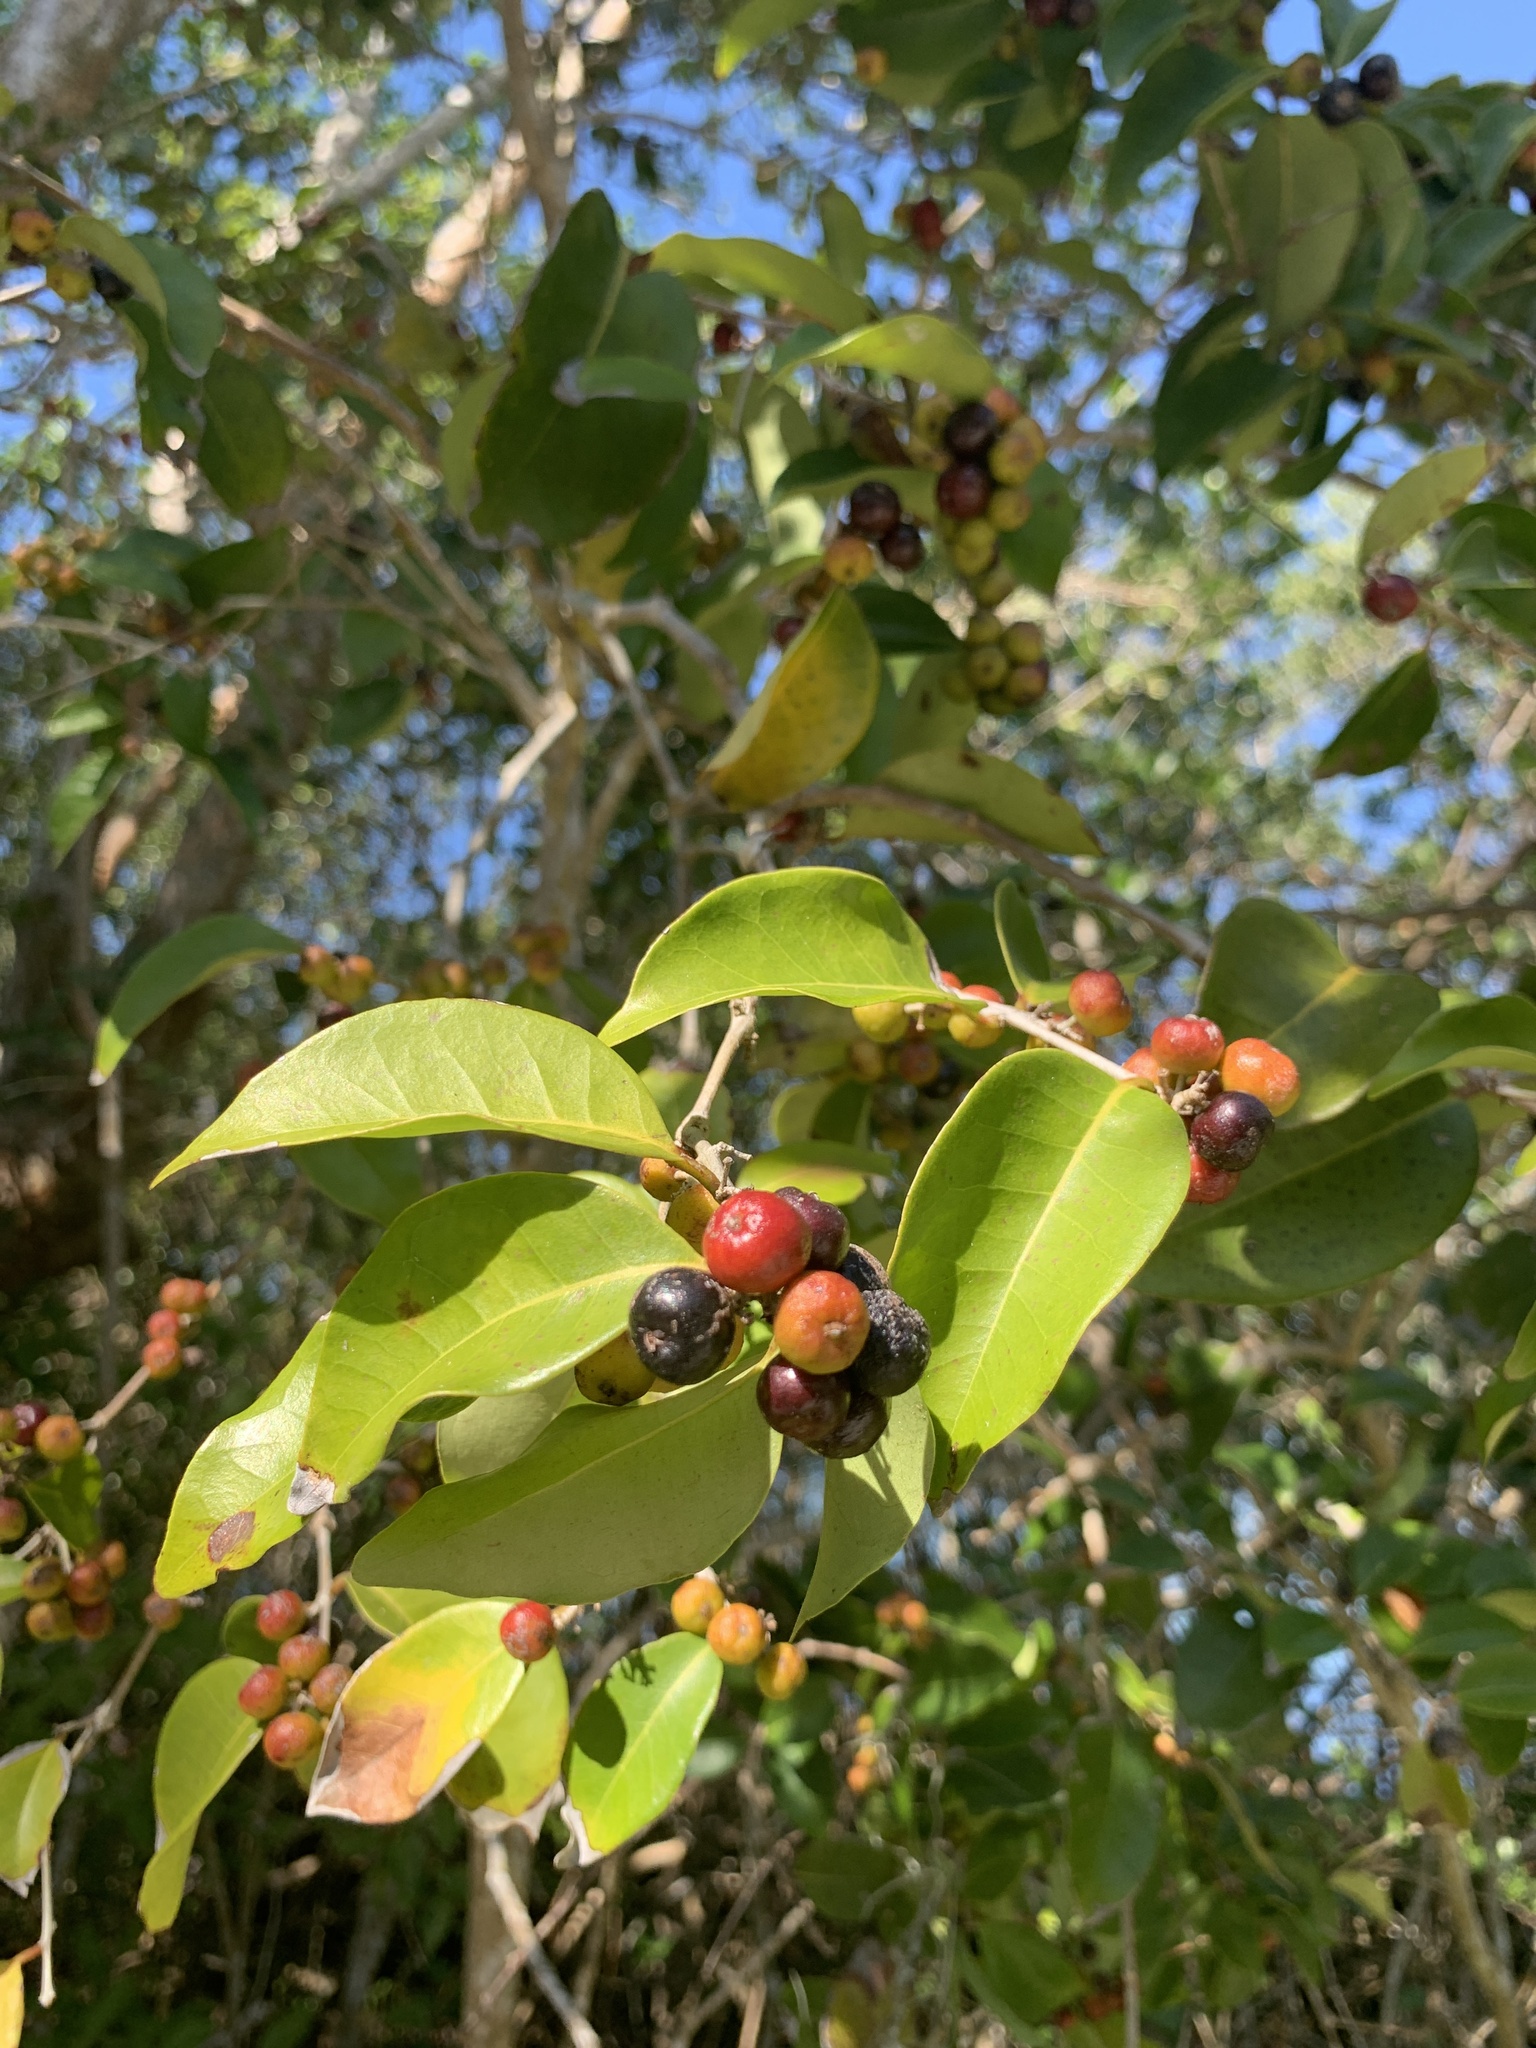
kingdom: Plantae
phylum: Tracheophyta
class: Magnoliopsida
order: Myrtales
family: Myrtaceae
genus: Eugenia
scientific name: Eugenia axillaris
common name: Choaky berry
